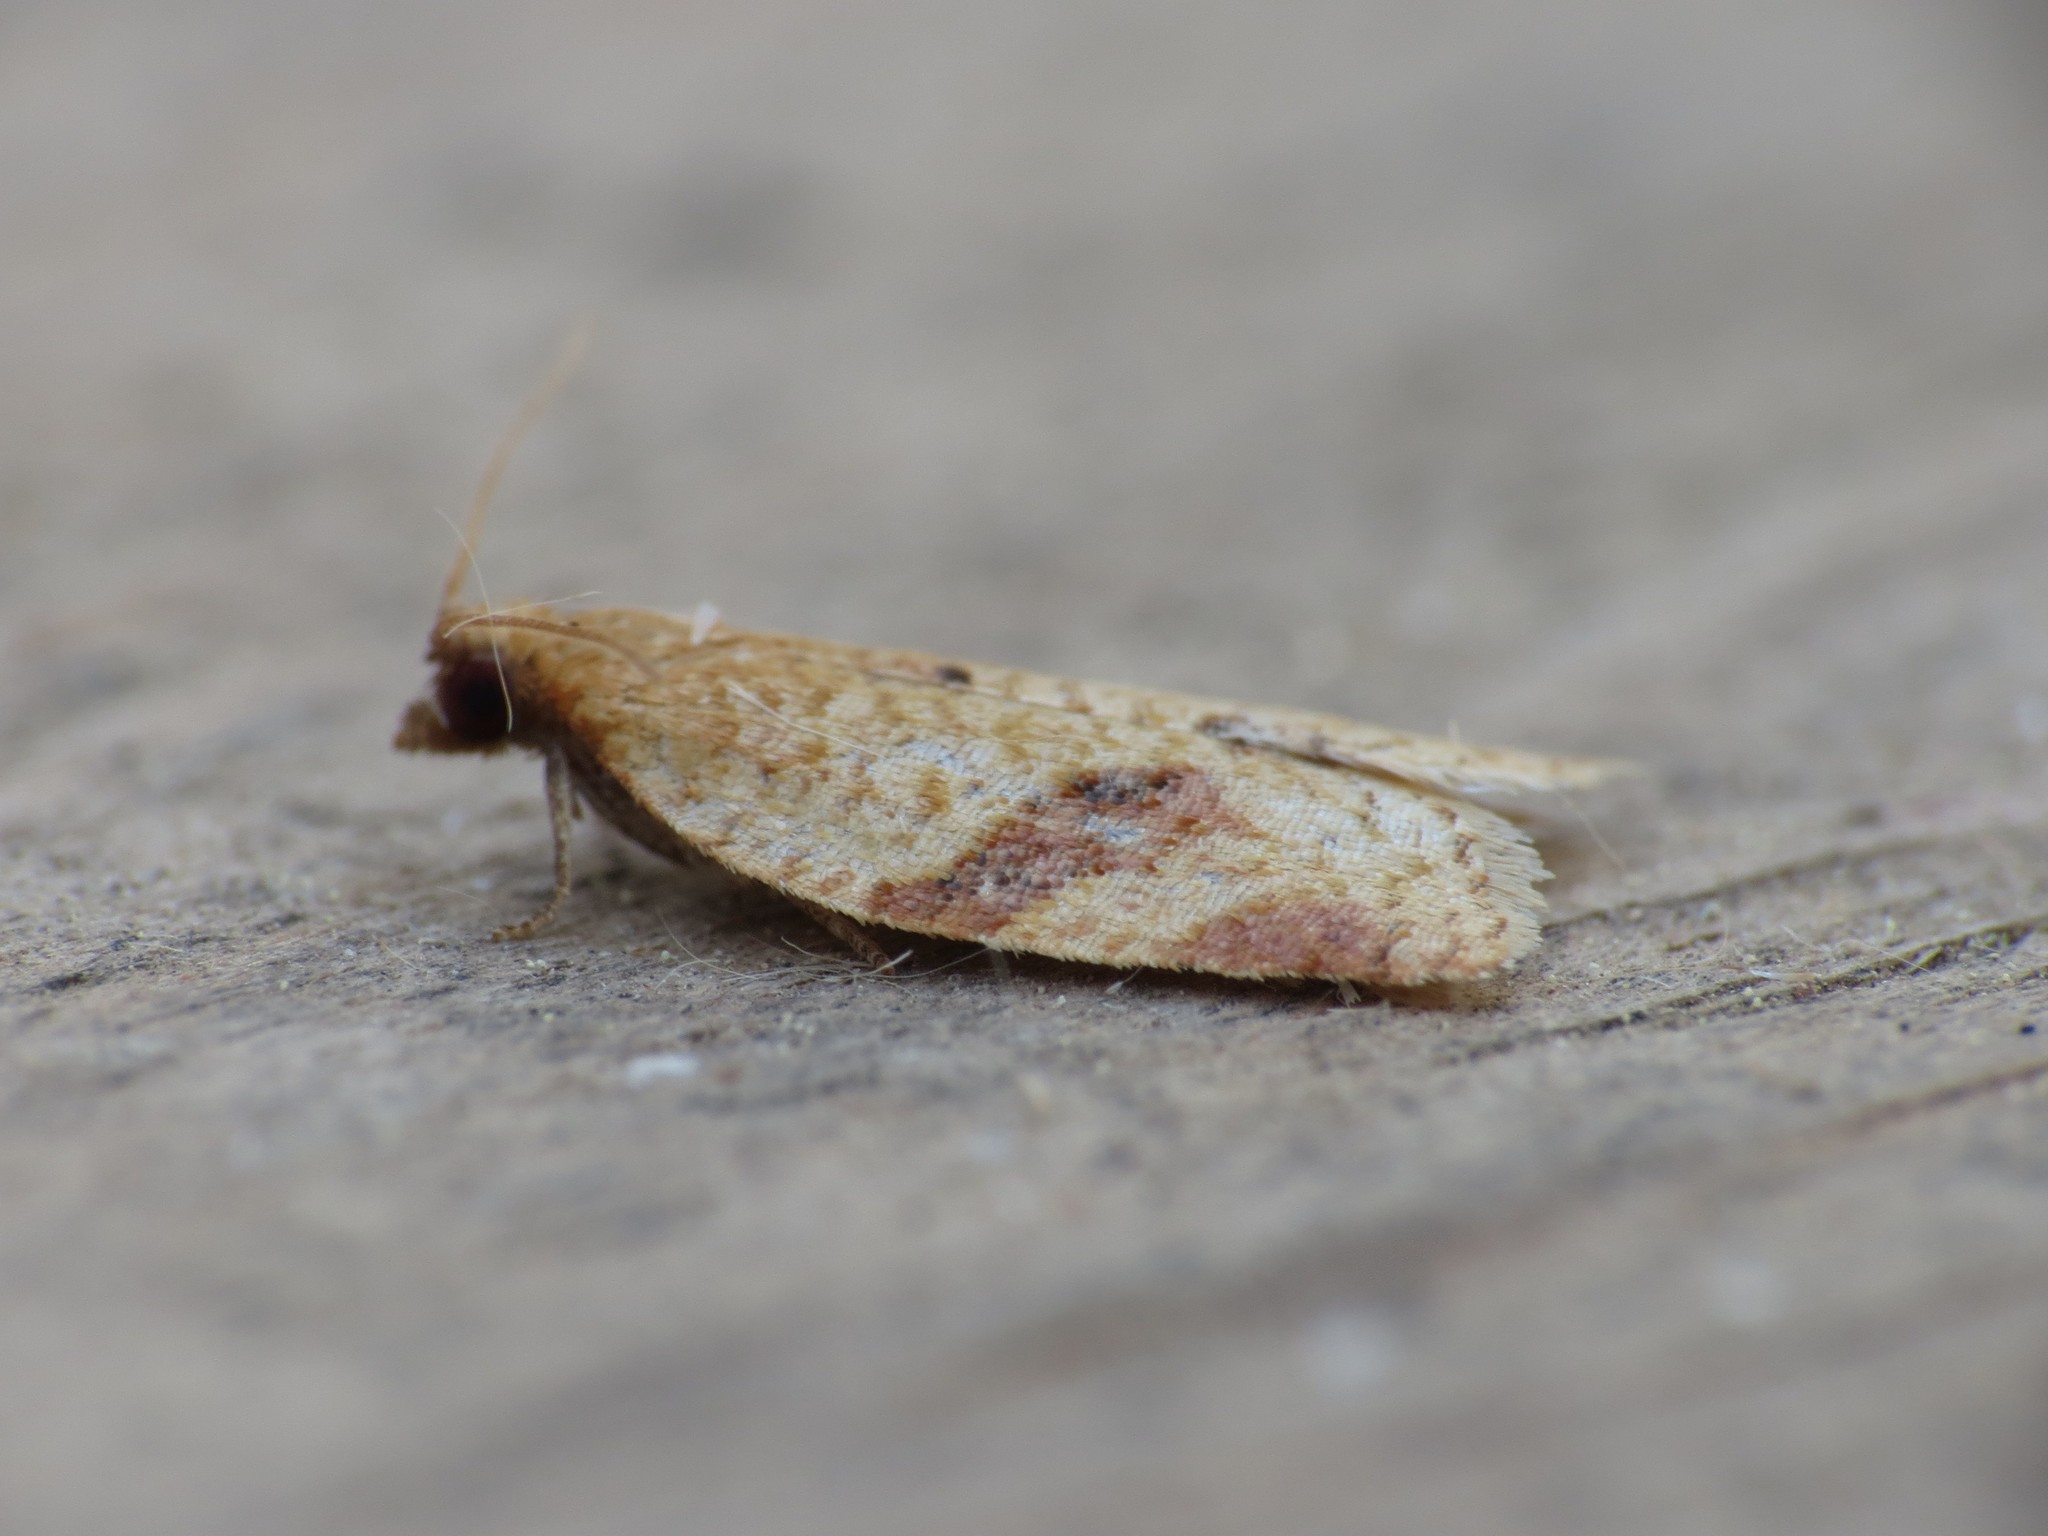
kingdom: Animalia
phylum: Arthropoda
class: Insecta
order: Lepidoptera
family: Tortricidae
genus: Clepsis
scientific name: Clepsis consimilana
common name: Privet tortrix
